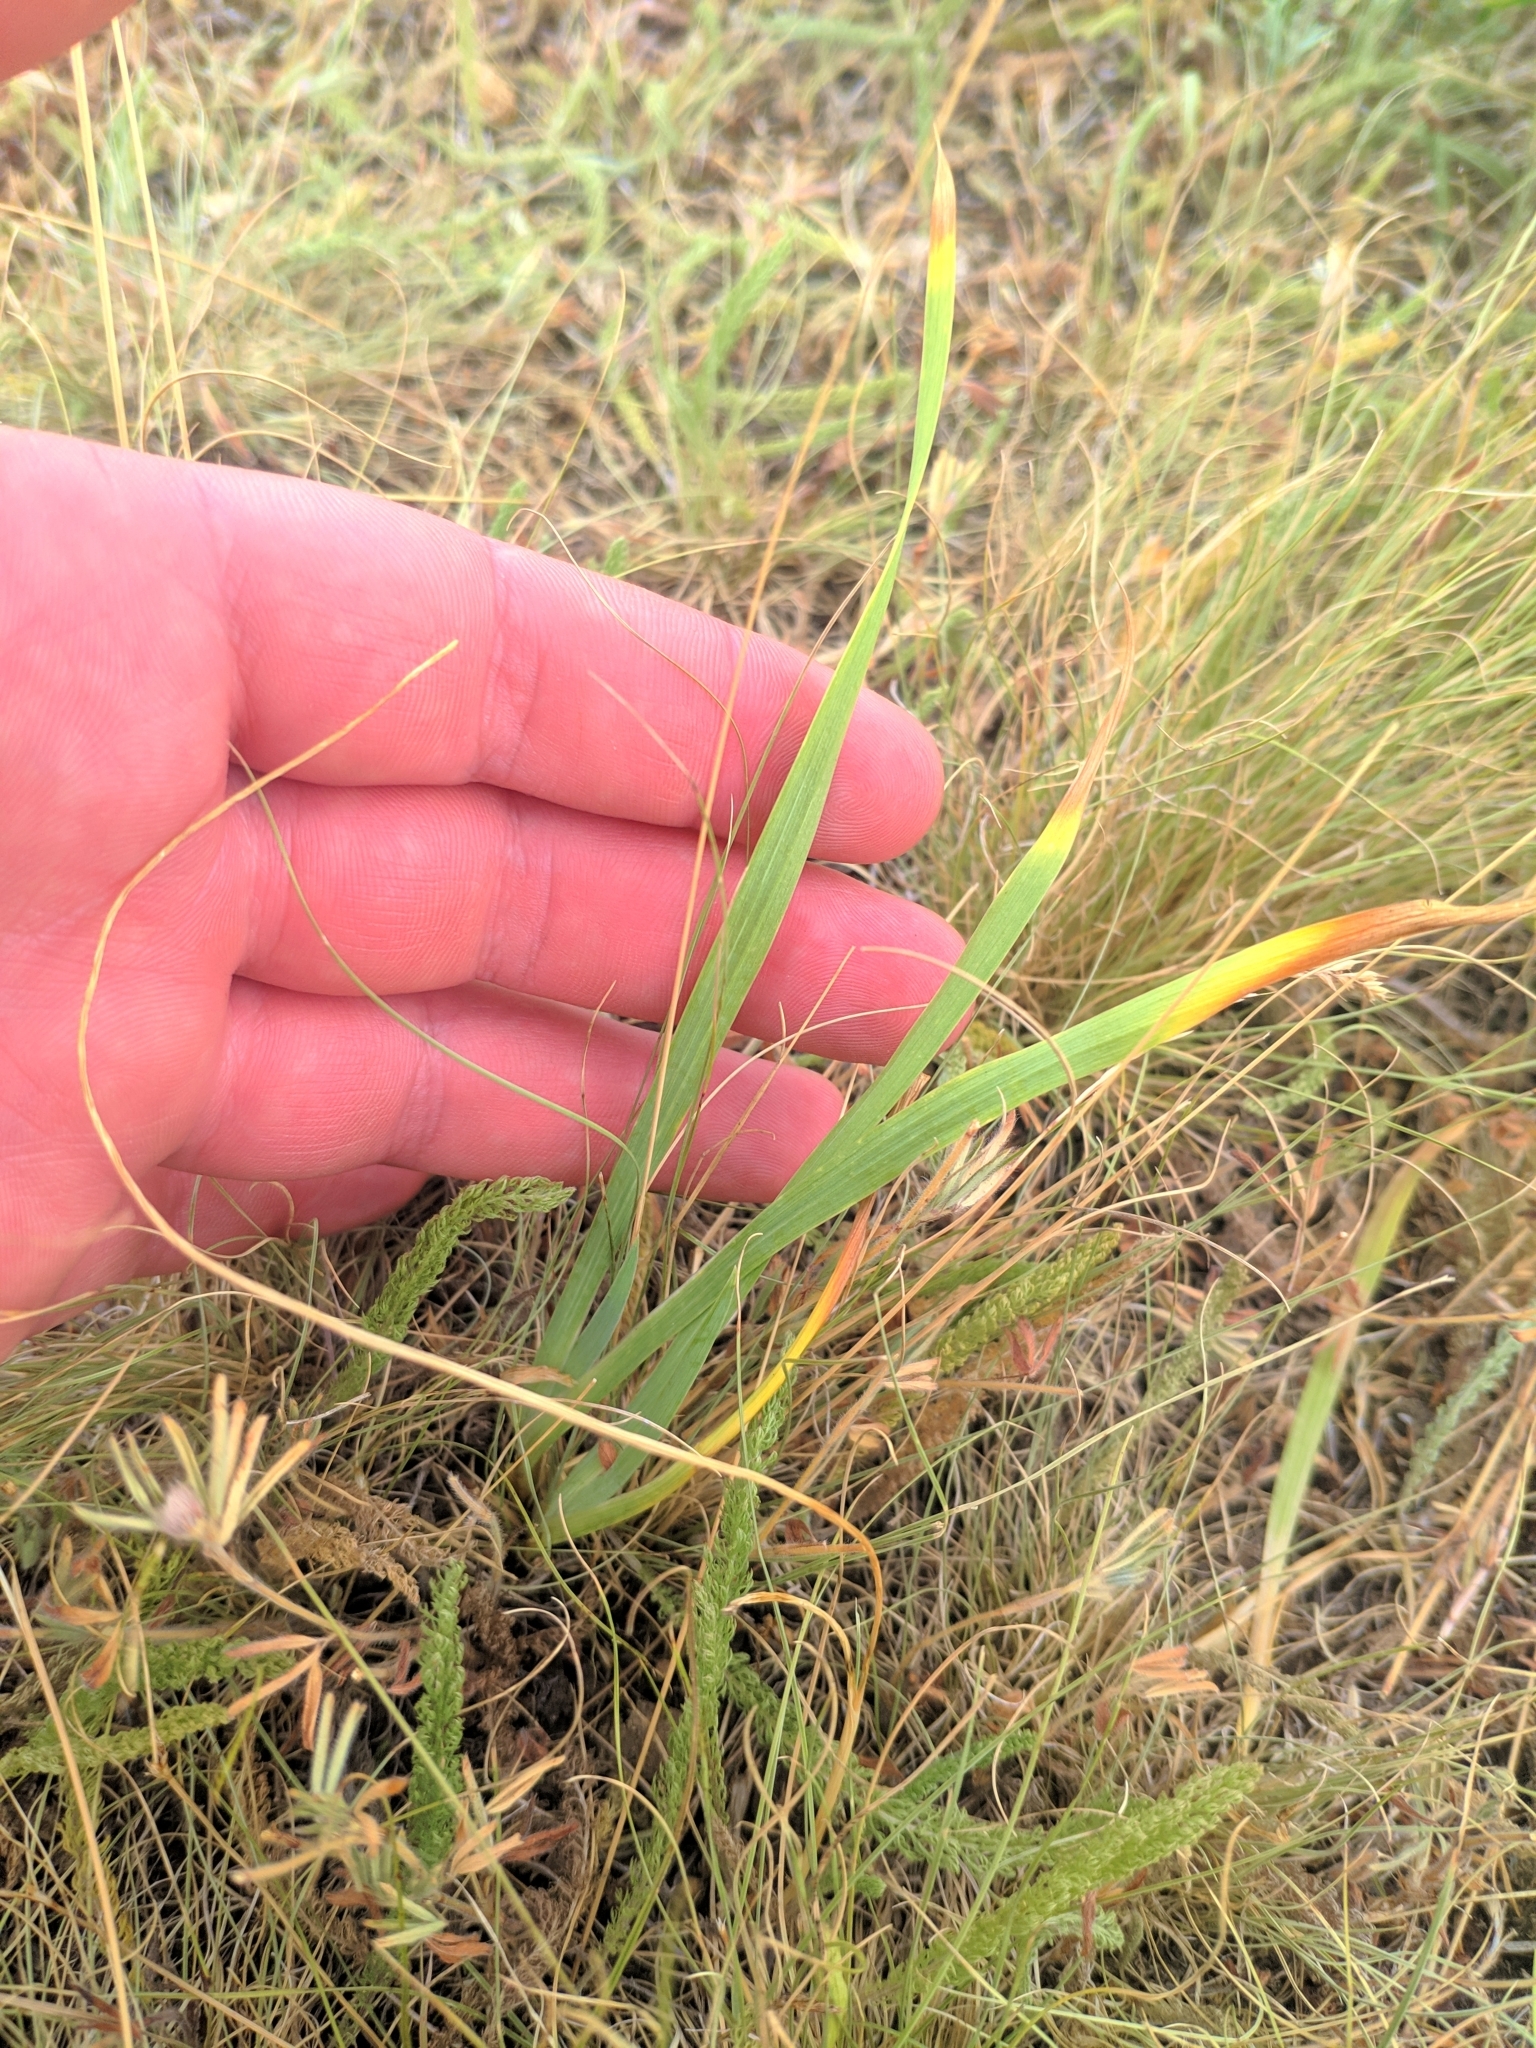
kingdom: Plantae
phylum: Tracheophyta
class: Liliopsida
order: Asparagales
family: Iridaceae
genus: Iris
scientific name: Iris arenaria
